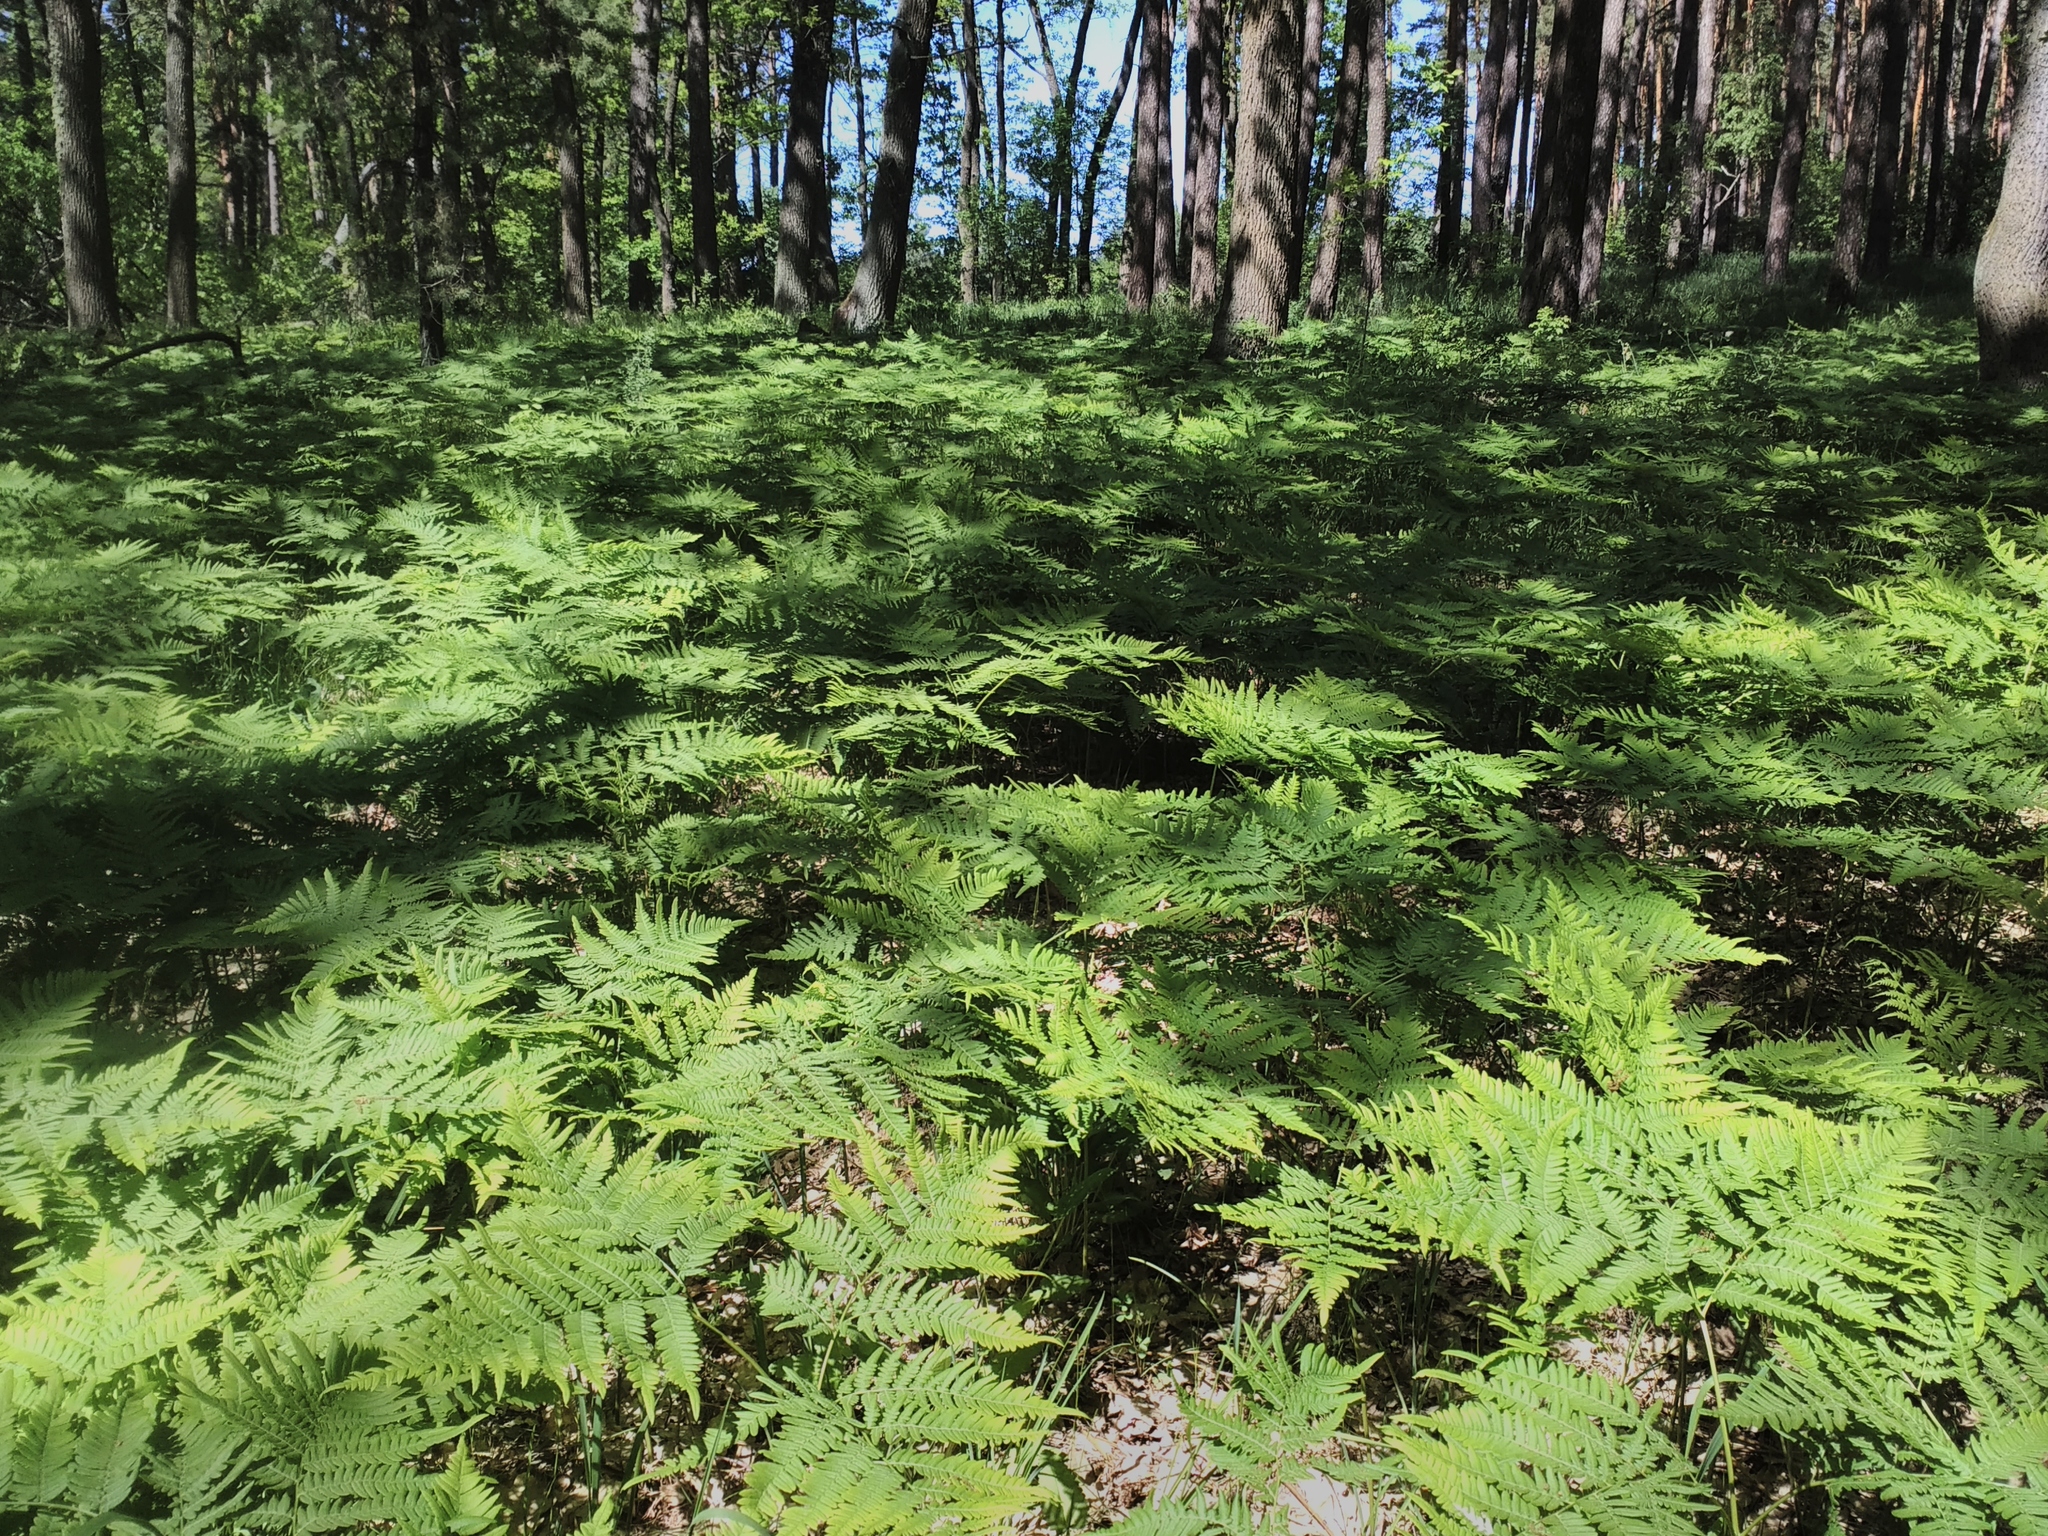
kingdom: Plantae
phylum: Tracheophyta
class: Polypodiopsida
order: Polypodiales
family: Dennstaedtiaceae
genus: Pteridium
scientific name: Pteridium aquilinum
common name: Bracken
